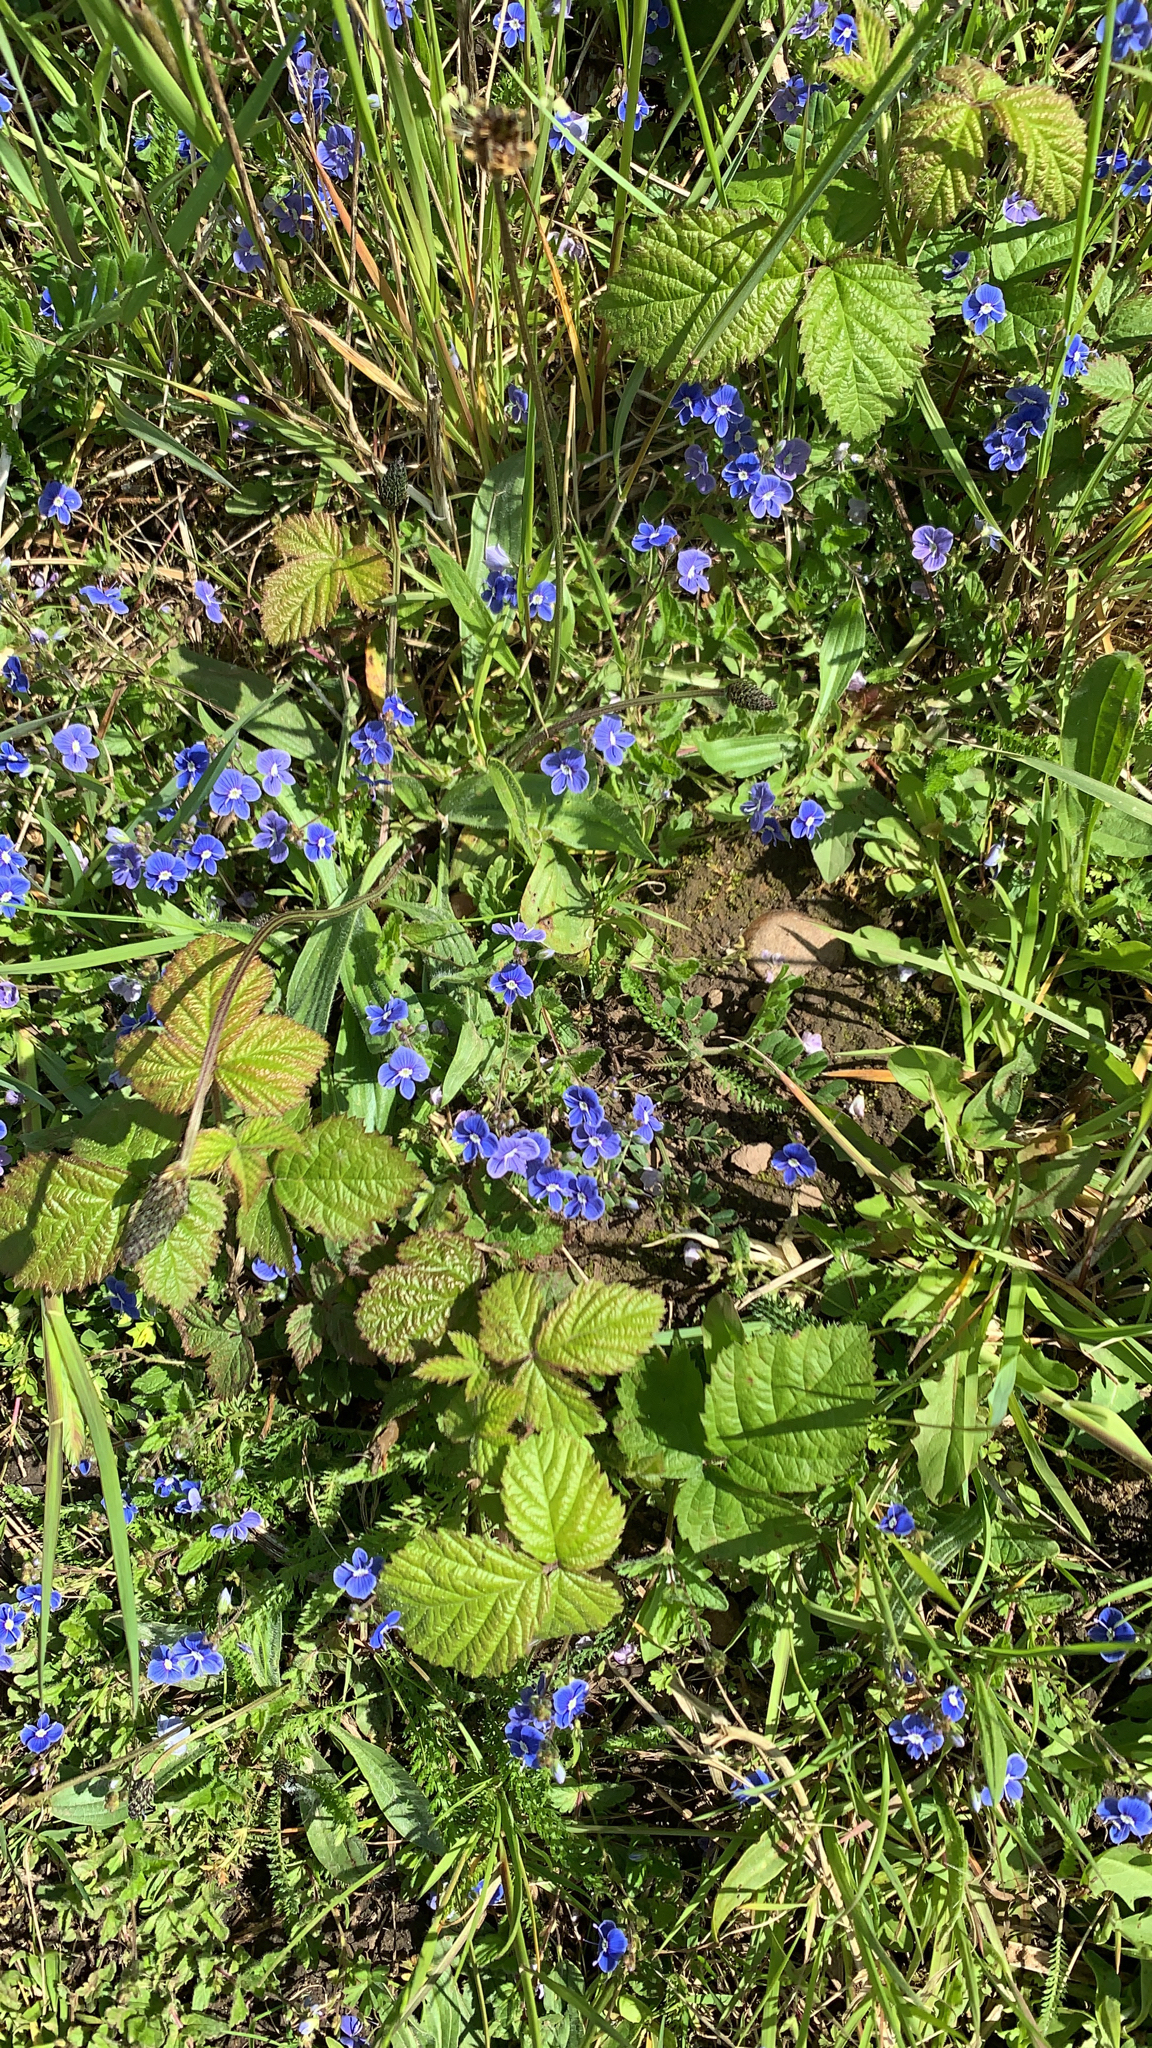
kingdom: Plantae
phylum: Tracheophyta
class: Magnoliopsida
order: Lamiales
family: Plantaginaceae
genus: Veronica
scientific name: Veronica chamaedrys
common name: Germander speedwell
